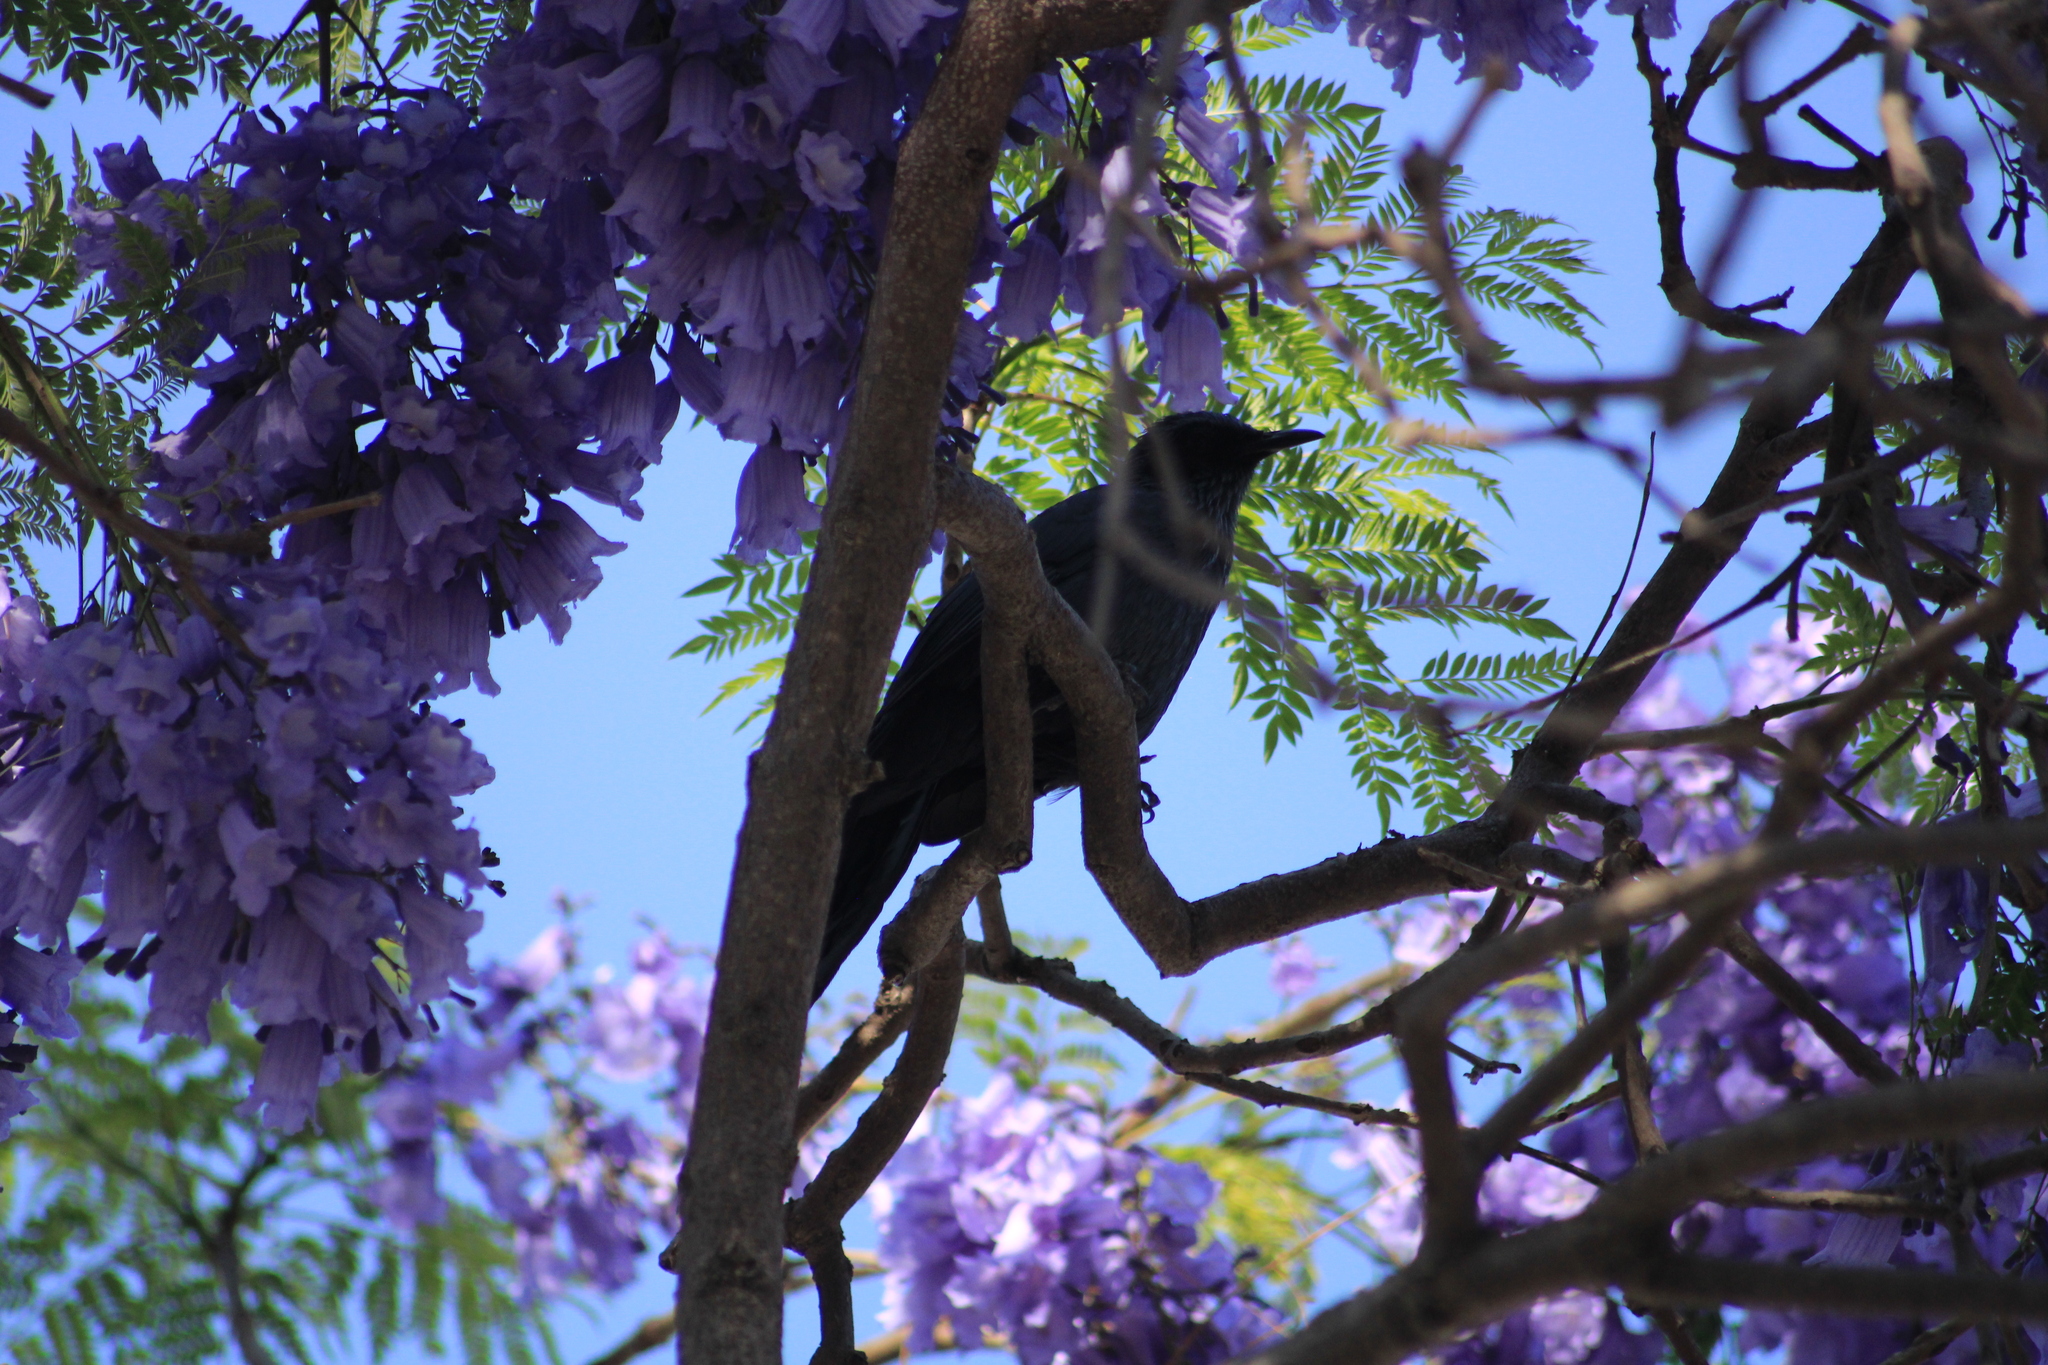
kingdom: Animalia
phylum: Chordata
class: Aves
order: Passeriformes
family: Mimidae
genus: Melanotis
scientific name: Melanotis caerulescens
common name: Blue mockingbird
